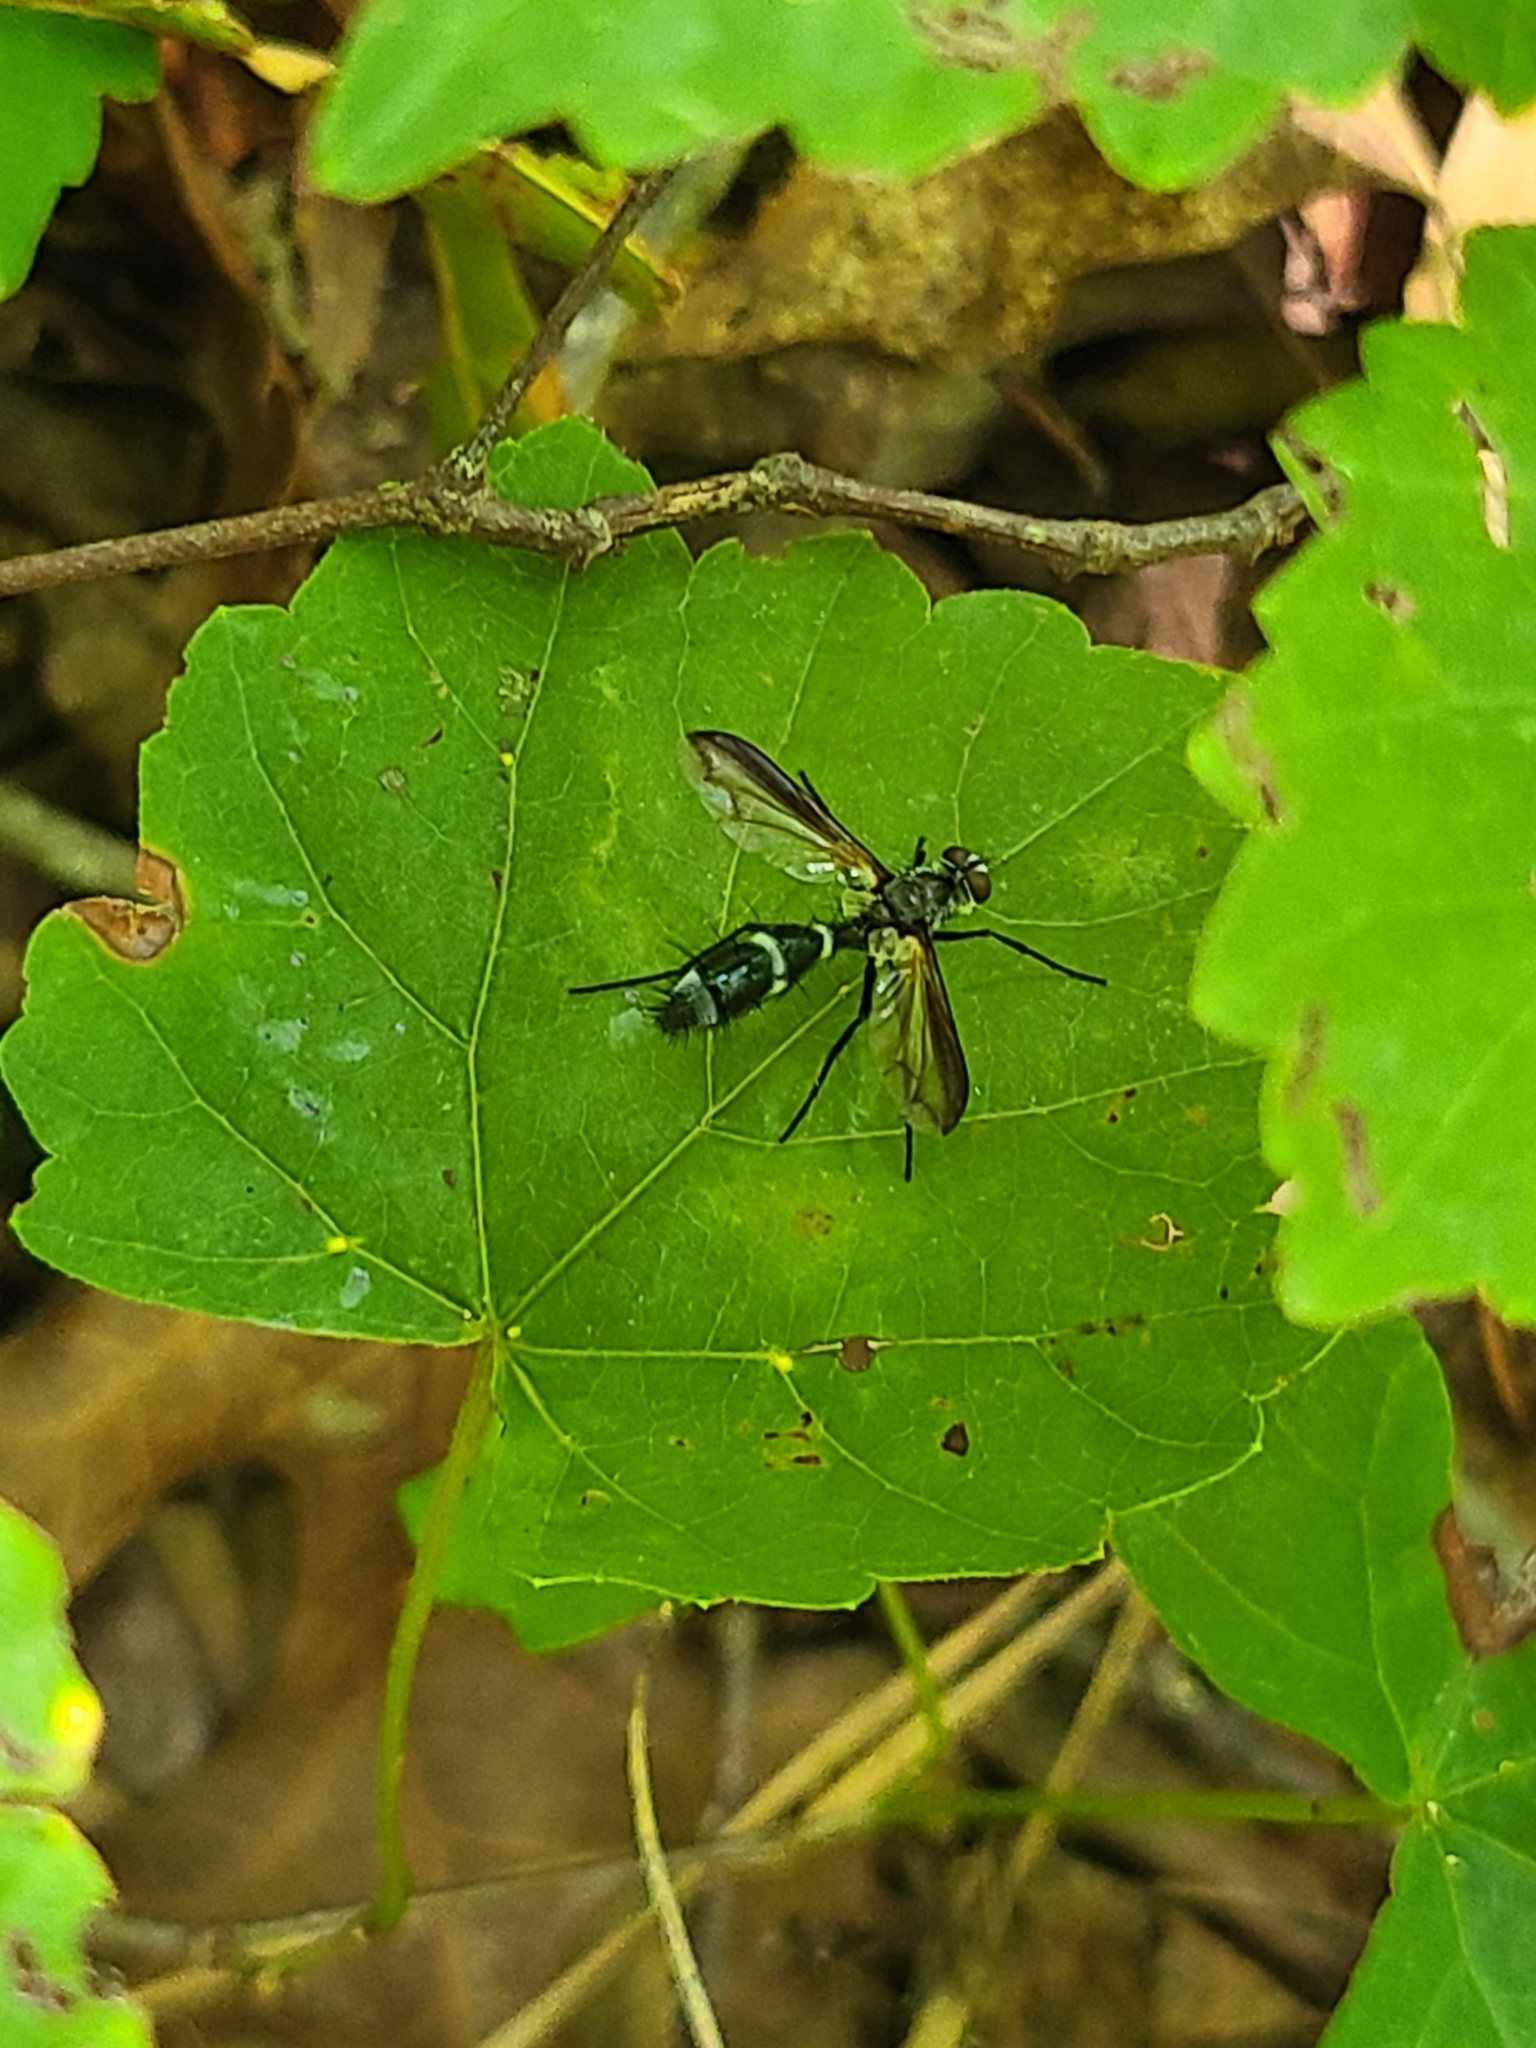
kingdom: Animalia
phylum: Arthropoda
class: Insecta
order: Diptera
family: Tachinidae
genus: Cordyligaster
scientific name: Cordyligaster septentrionalis
